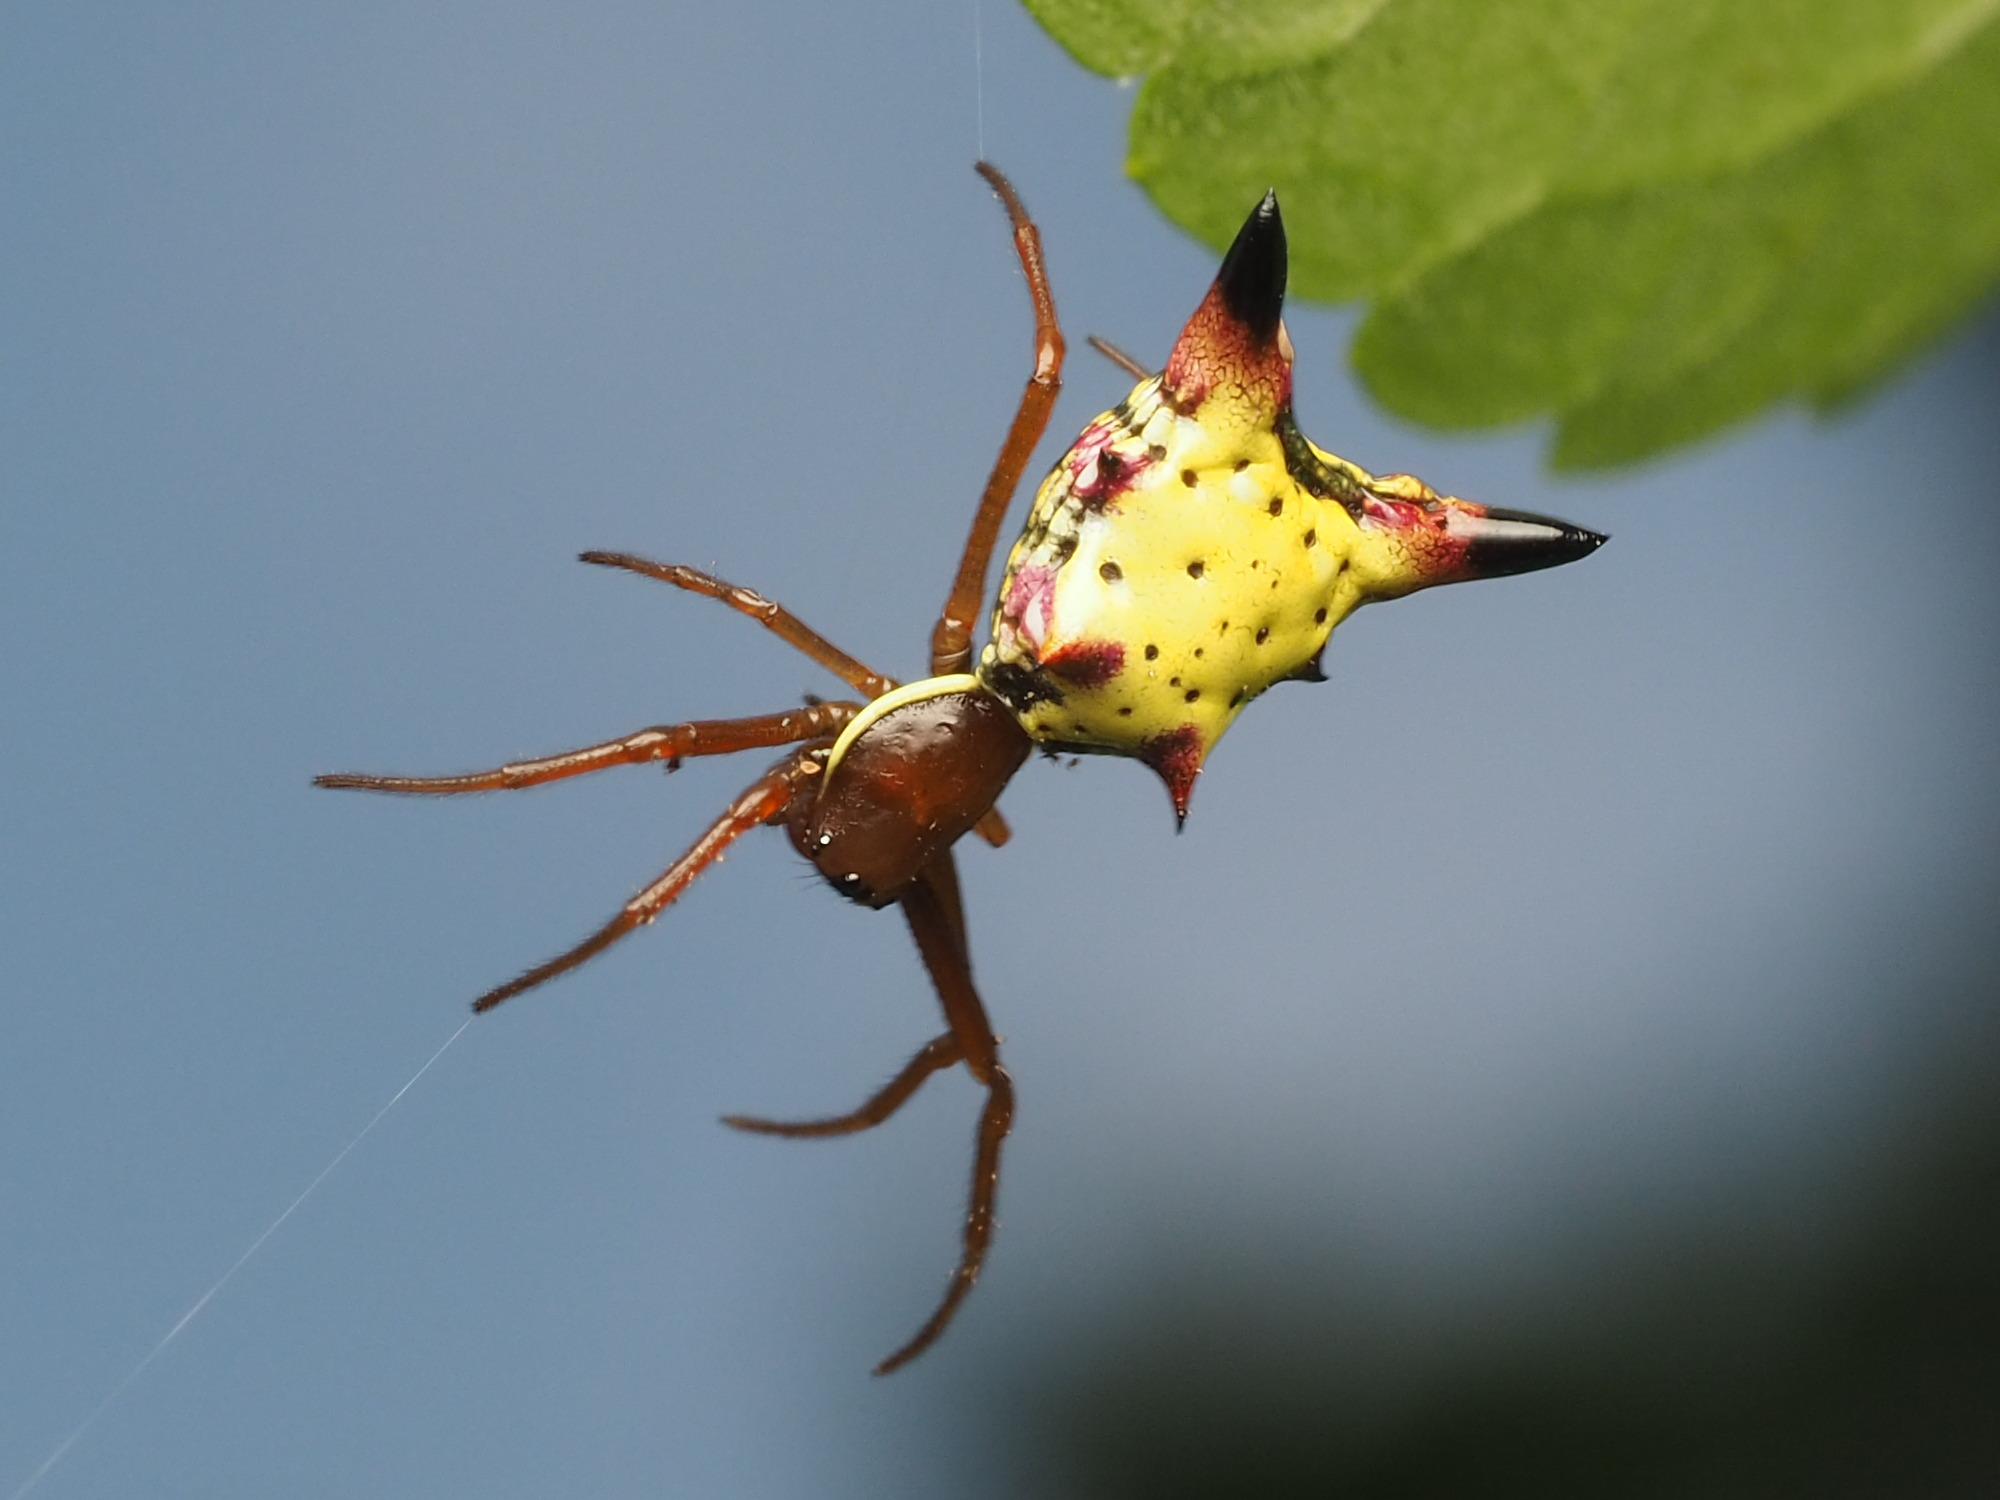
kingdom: Animalia
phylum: Arthropoda
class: Arachnida
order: Araneae
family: Araneidae
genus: Micrathena
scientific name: Micrathena sagittata
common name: Orb weavers
